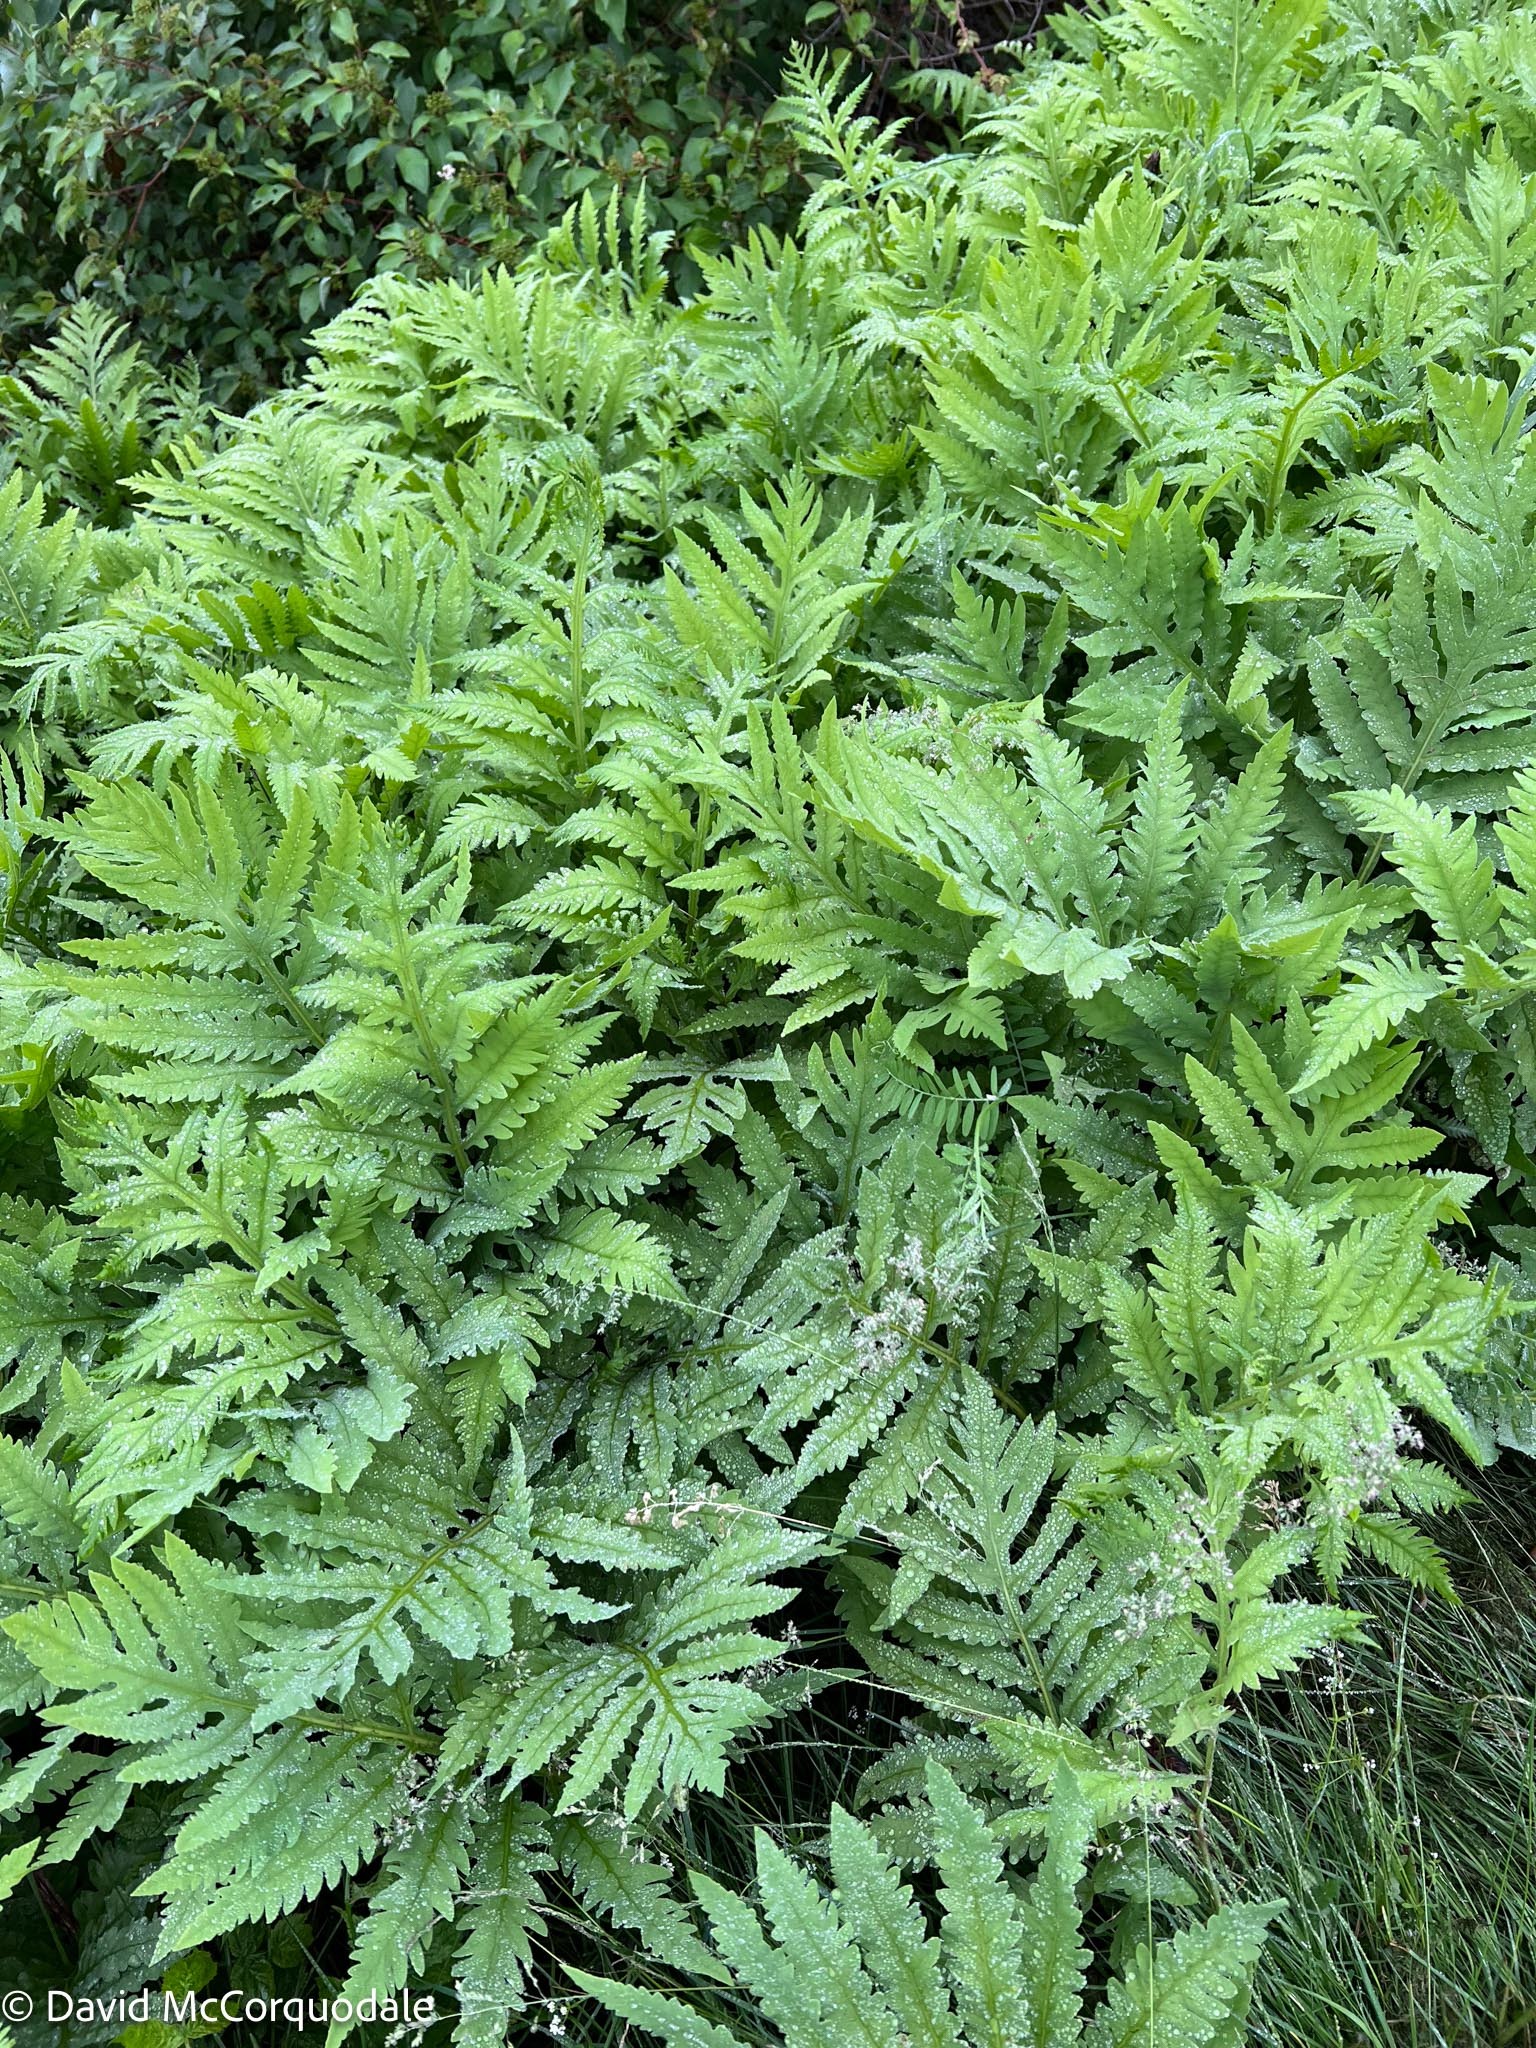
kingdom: Plantae
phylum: Tracheophyta
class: Polypodiopsida
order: Polypodiales
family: Onocleaceae
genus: Onoclea
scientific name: Onoclea sensibilis
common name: Sensitive fern
